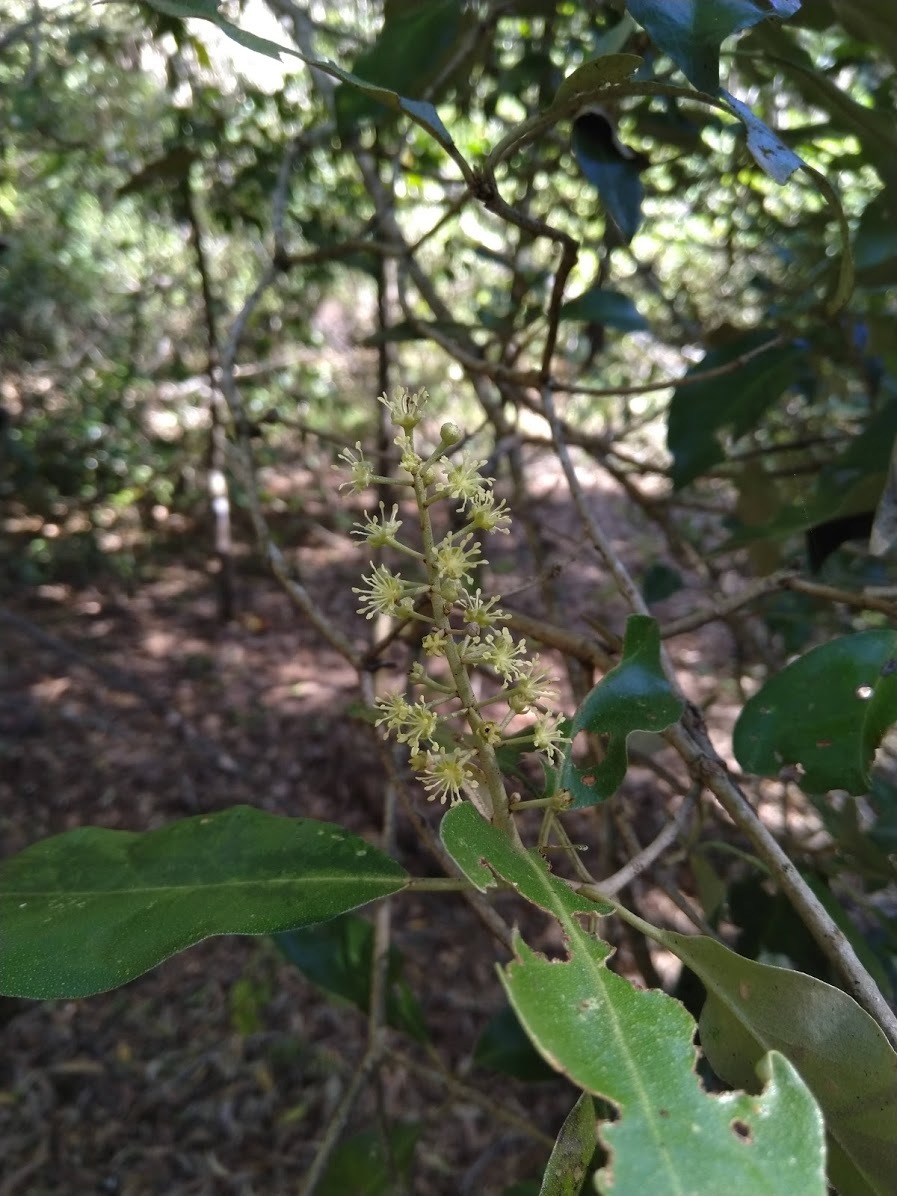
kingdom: Plantae
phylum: Tracheophyta
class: Magnoliopsida
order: Malpighiales
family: Euphorbiaceae
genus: Croton
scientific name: Croton insularis
